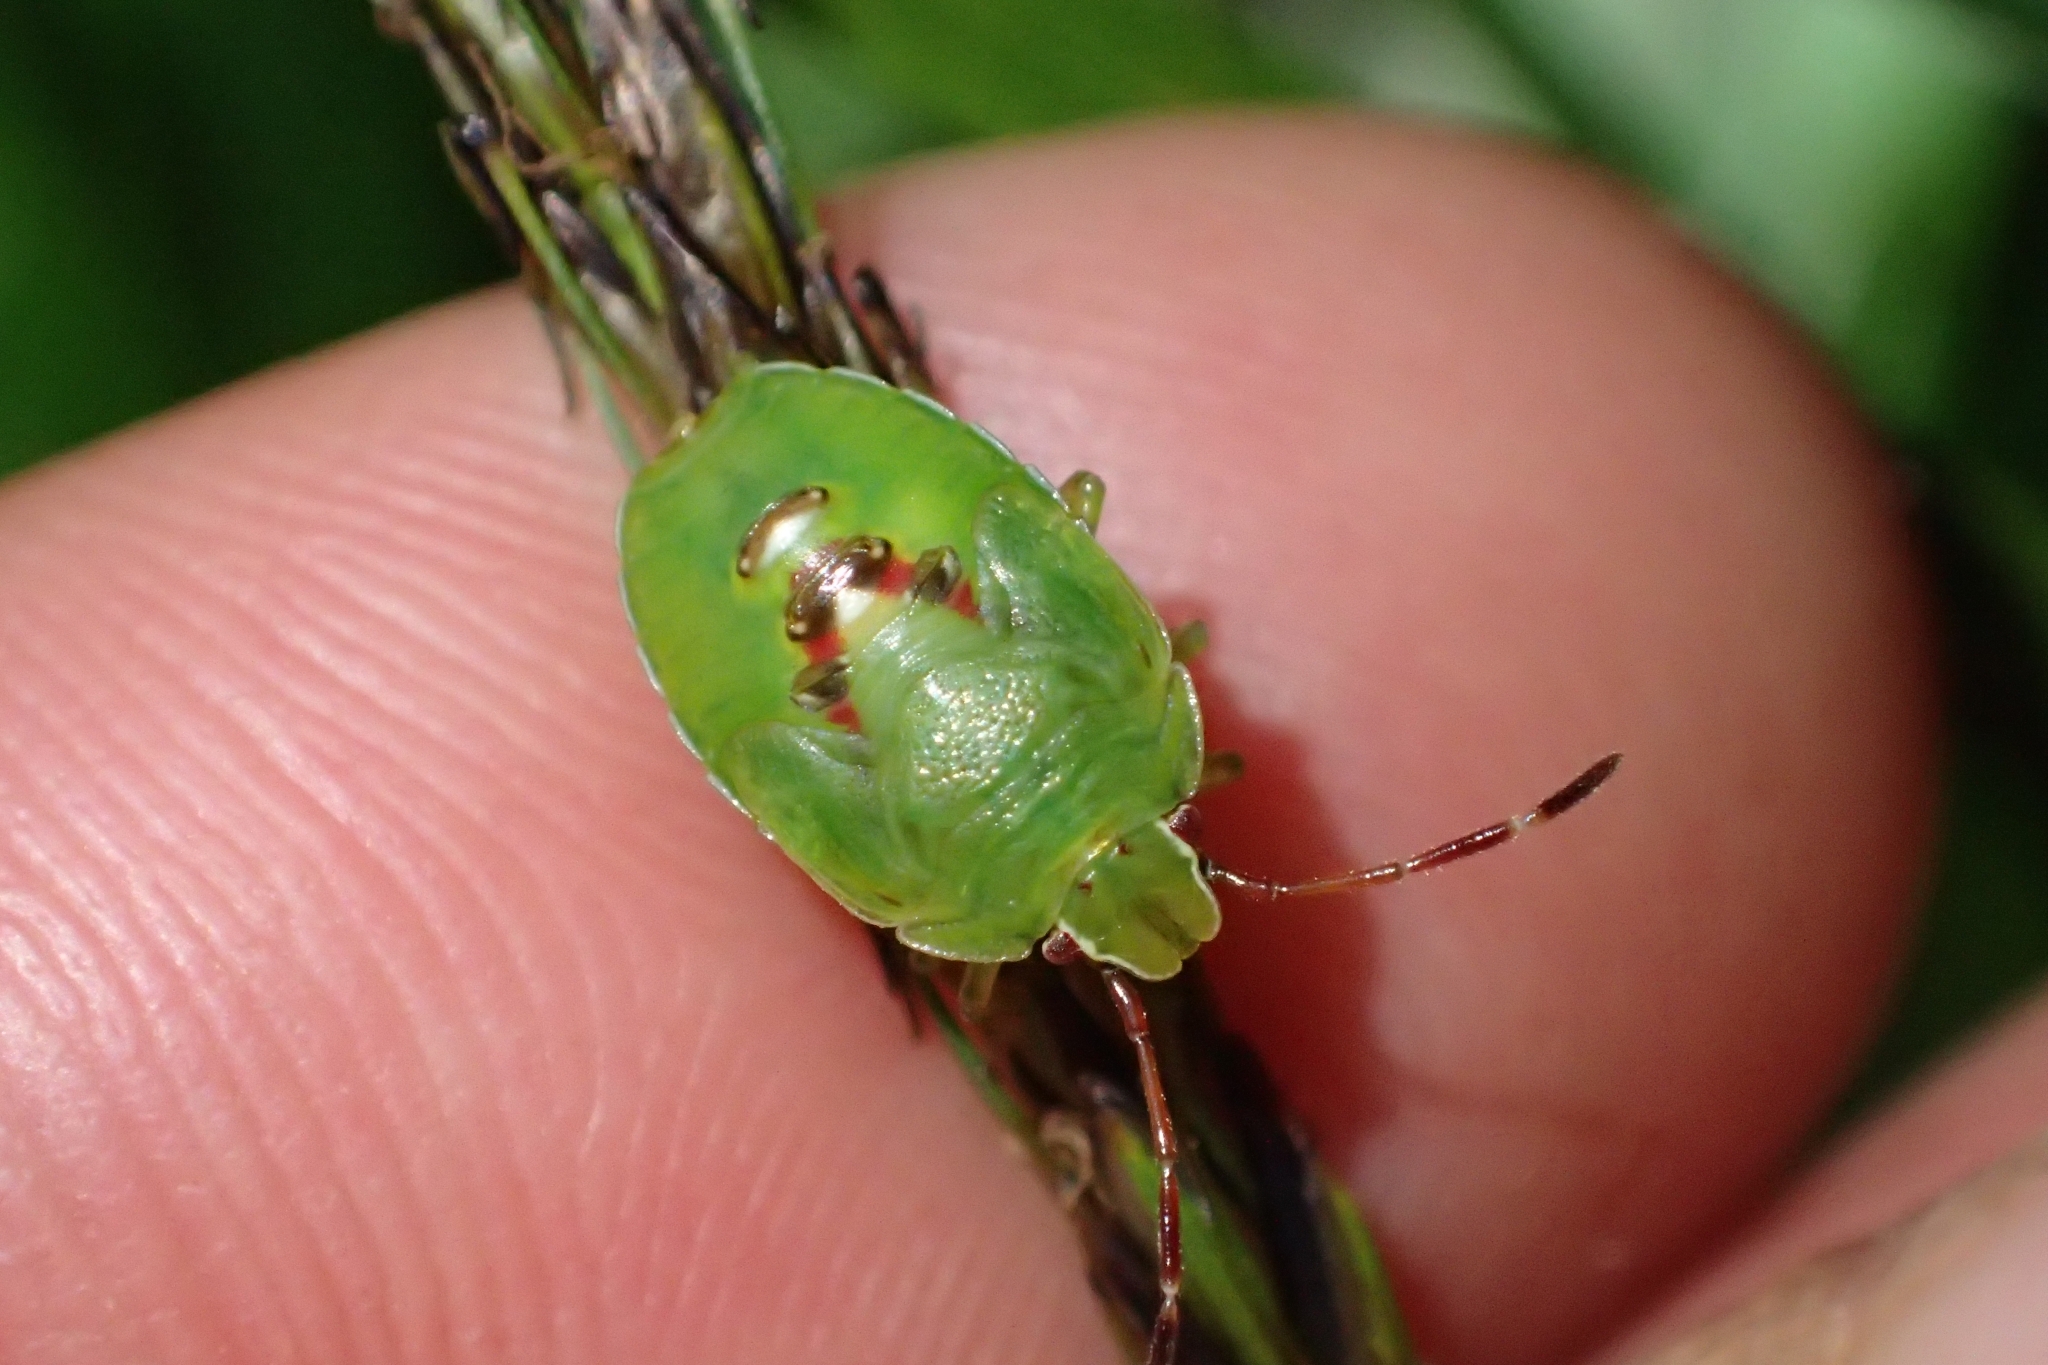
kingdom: Animalia
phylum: Arthropoda
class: Insecta
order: Hemiptera
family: Acanthosomatidae
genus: Oncacontias
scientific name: Oncacontias vittatus
